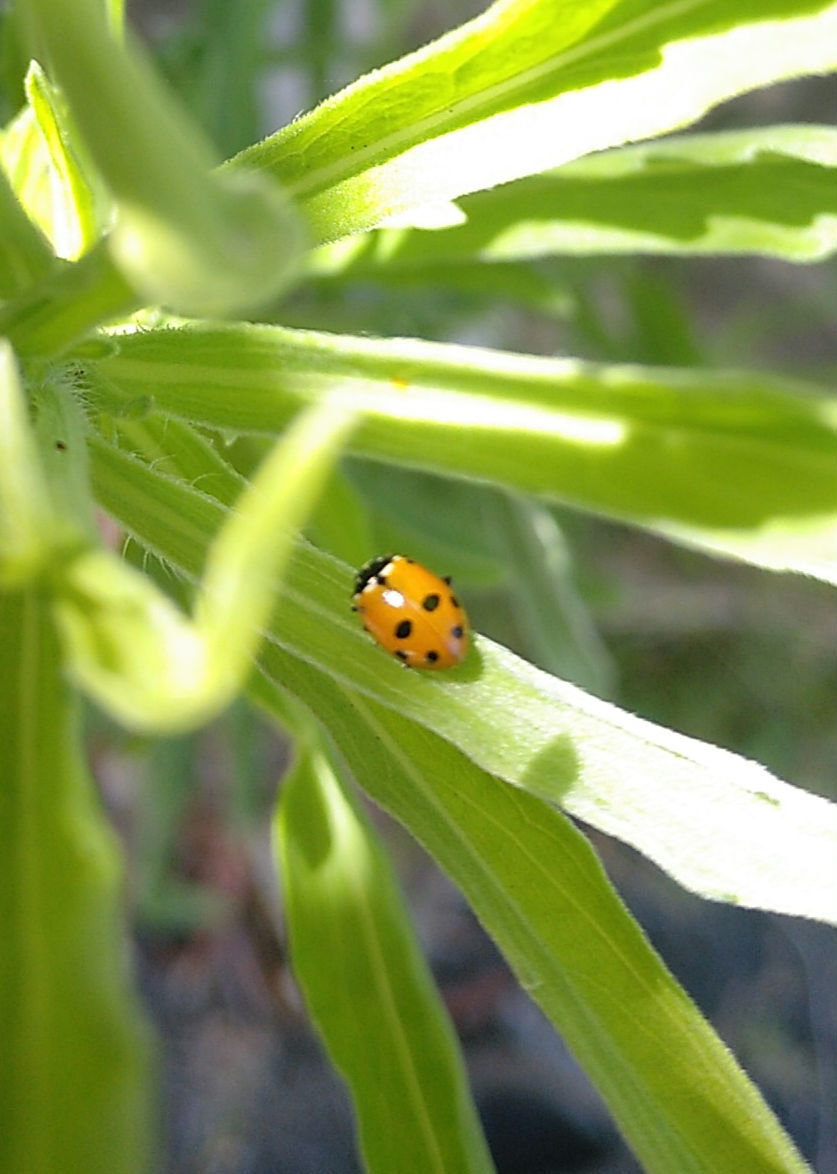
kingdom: Animalia
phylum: Arthropoda
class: Insecta
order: Coleoptera
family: Coccinellidae
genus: Hippodamia
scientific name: Hippodamia variegata
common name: Ladybird beetle
